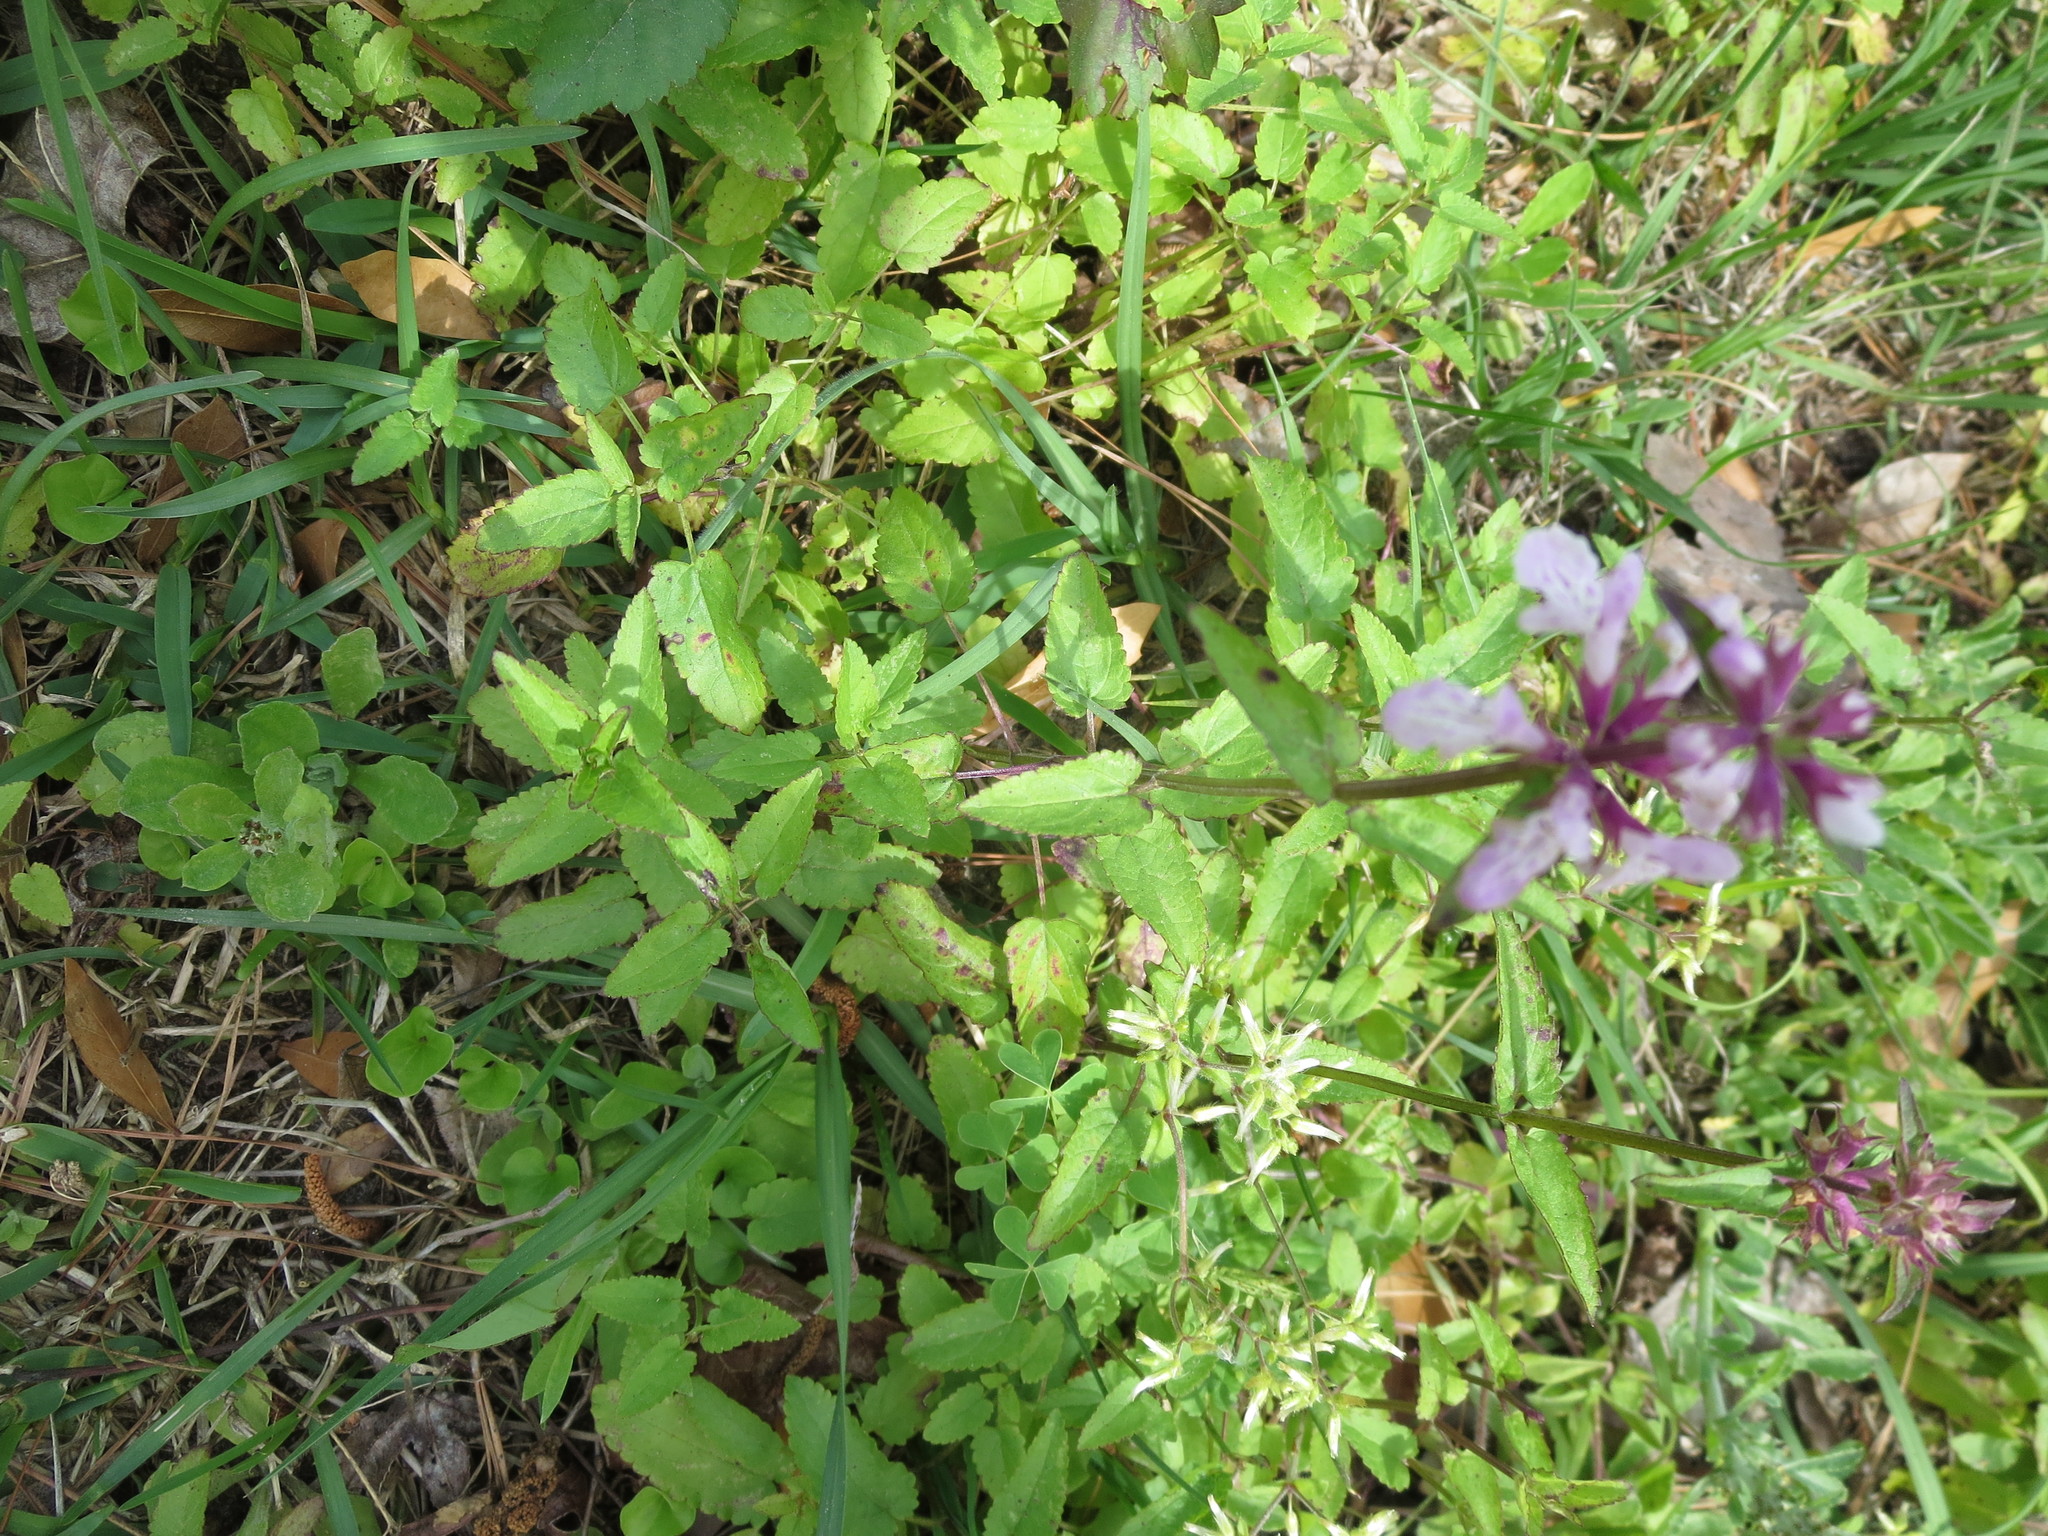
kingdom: Plantae
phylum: Tracheophyta
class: Magnoliopsida
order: Lamiales
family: Lamiaceae
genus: Stachys
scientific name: Stachys floridana
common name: Florida betony
